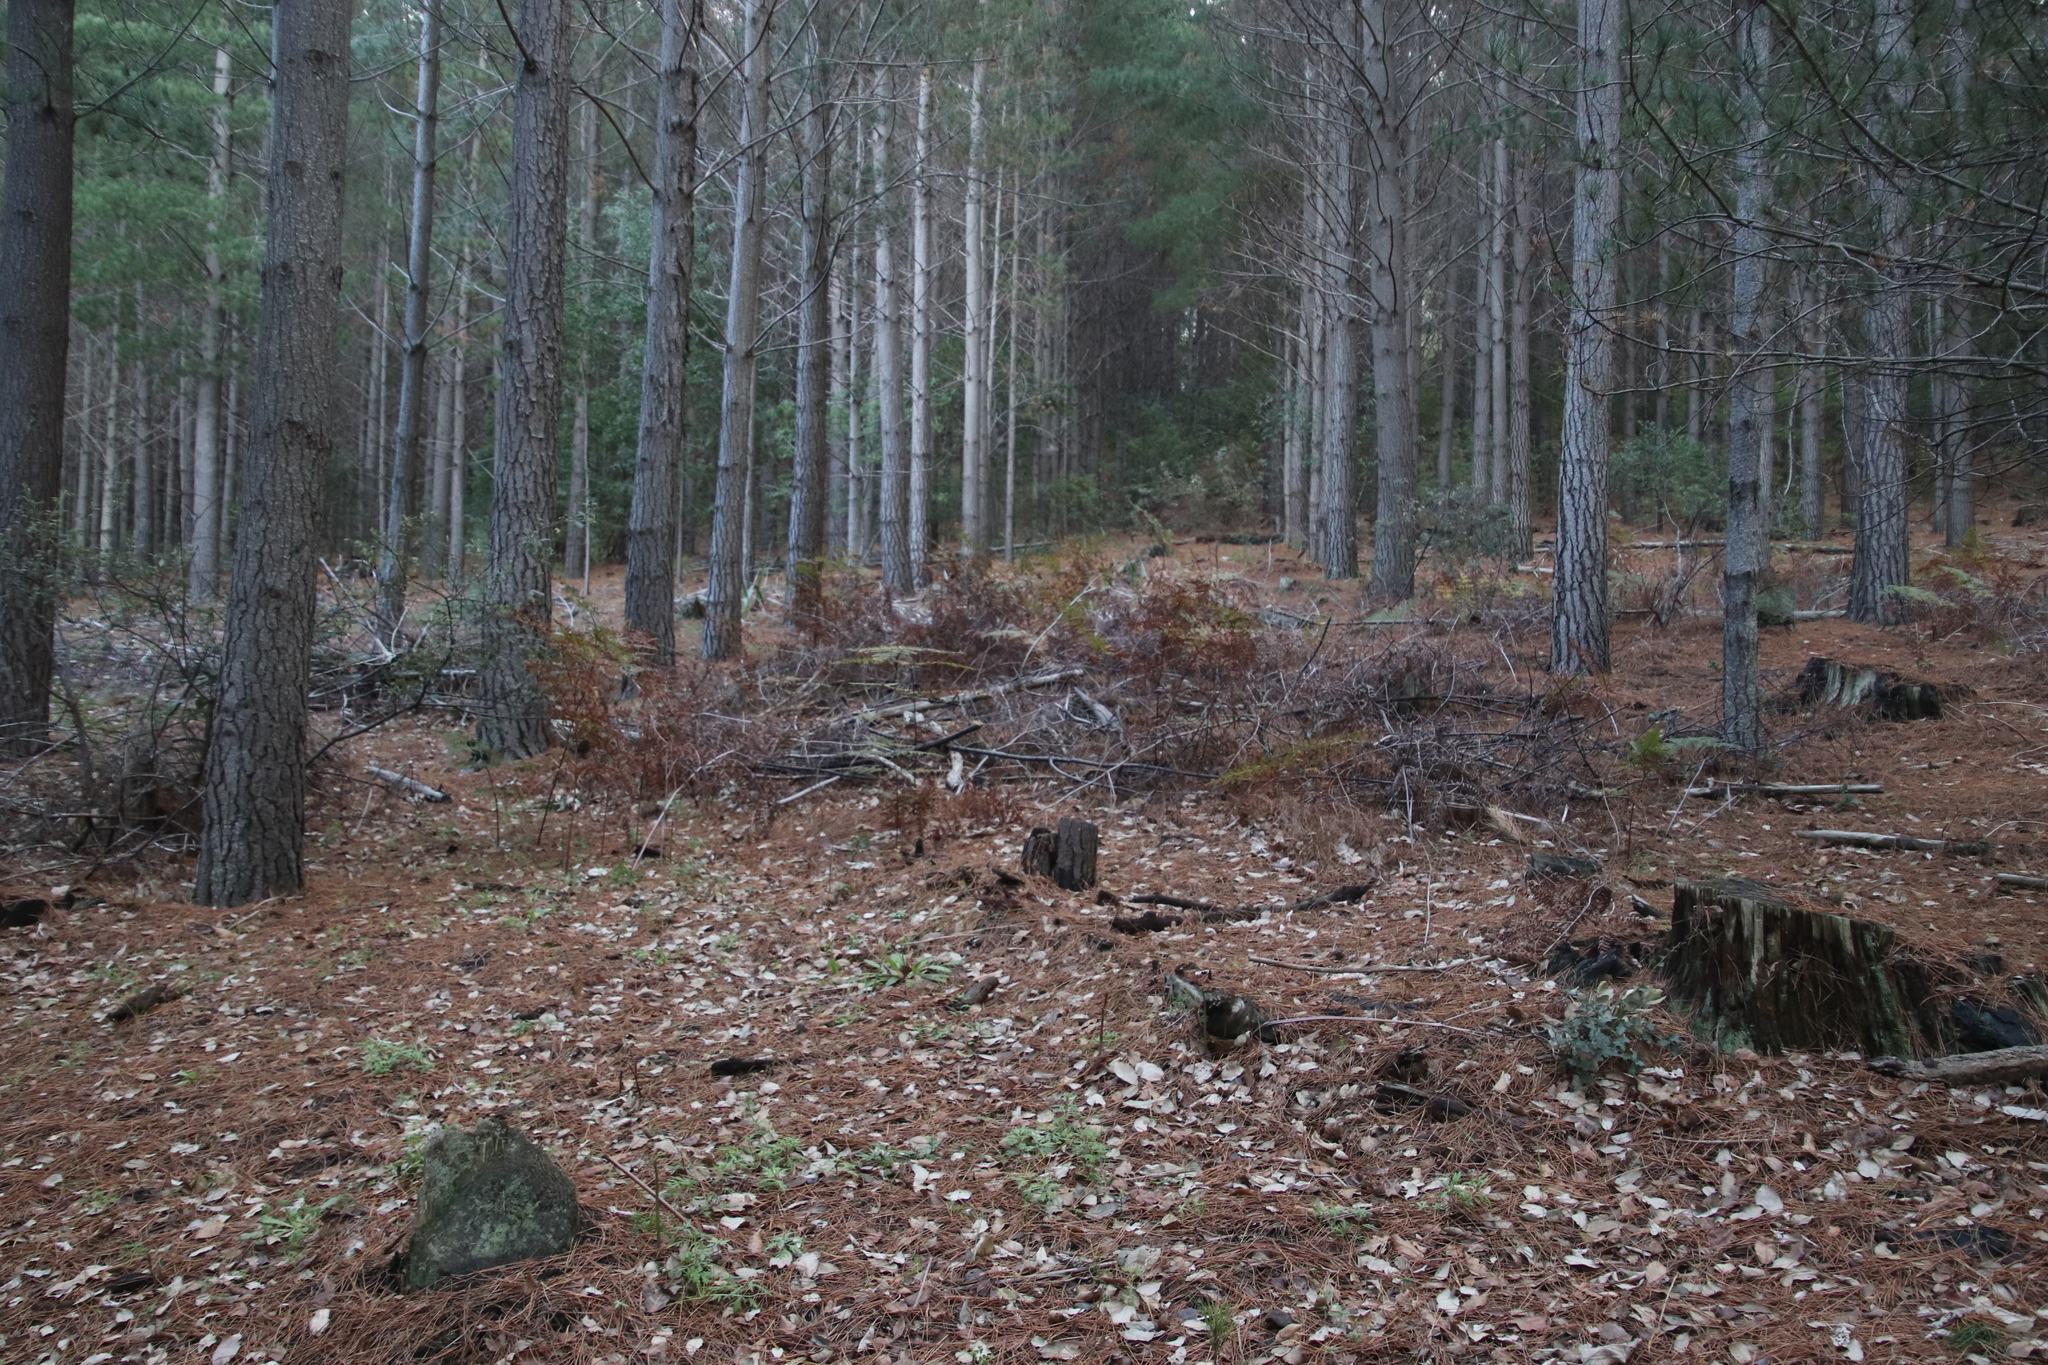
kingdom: Plantae
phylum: Tracheophyta
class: Polypodiopsida
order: Polypodiales
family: Dennstaedtiaceae
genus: Pteridium
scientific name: Pteridium aquilinum
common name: Bracken
